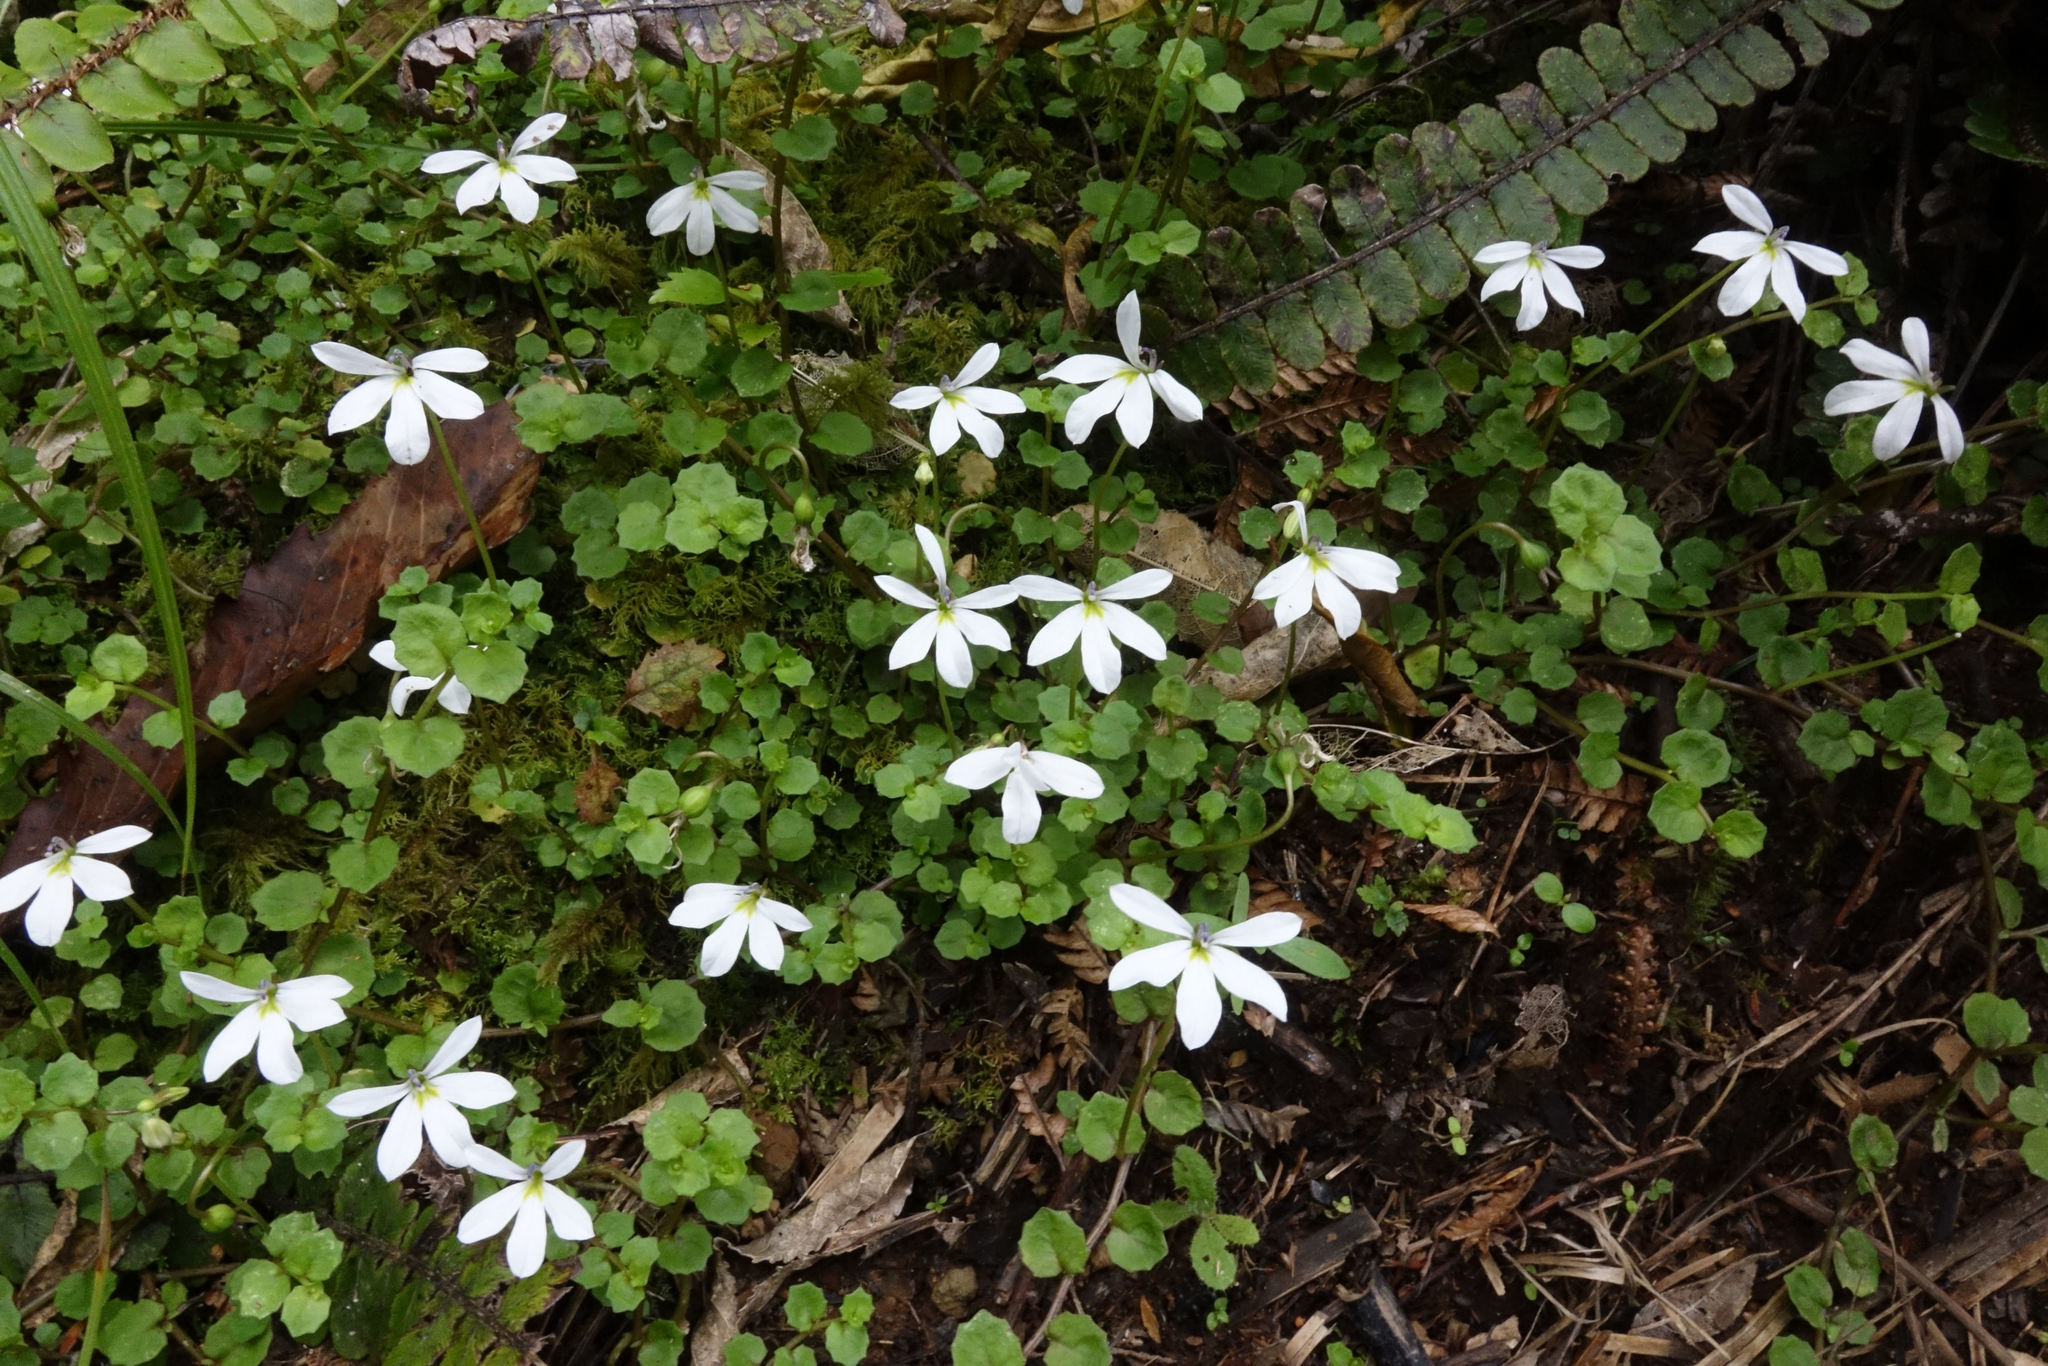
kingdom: Plantae
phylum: Tracheophyta
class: Magnoliopsida
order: Asterales
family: Campanulaceae
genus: Lobelia
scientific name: Lobelia angulata
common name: Lawn lobelia
